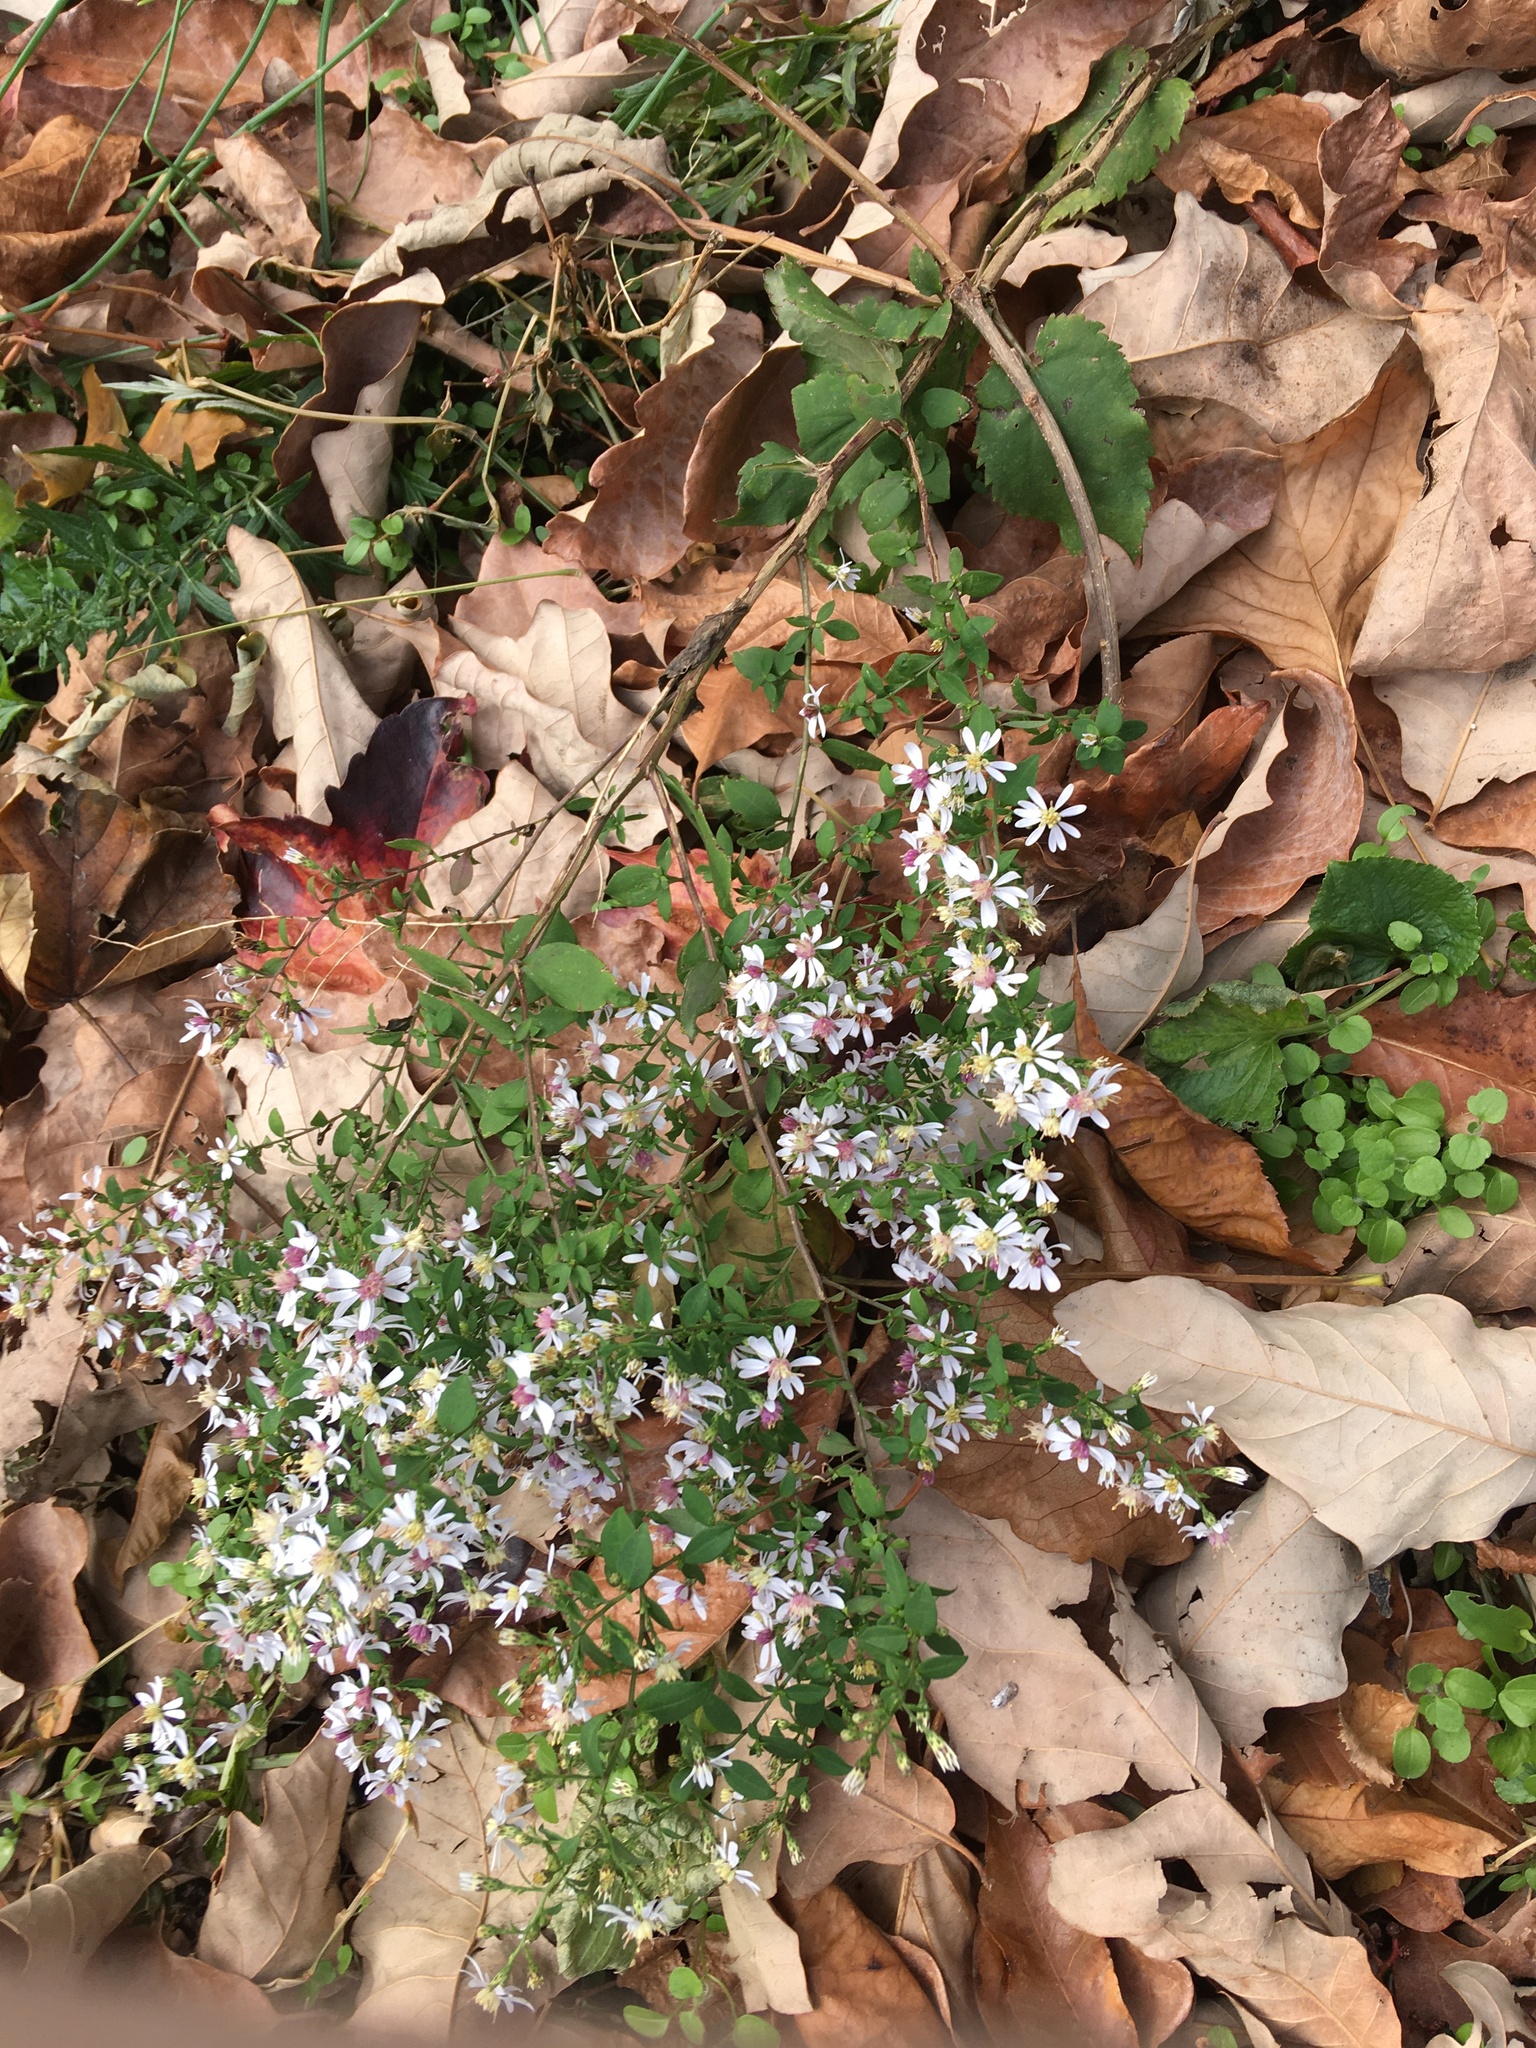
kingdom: Plantae
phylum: Tracheophyta
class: Magnoliopsida
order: Asterales
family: Asteraceae
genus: Symphyotrichum
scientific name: Symphyotrichum cordifolium
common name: Beeweed
